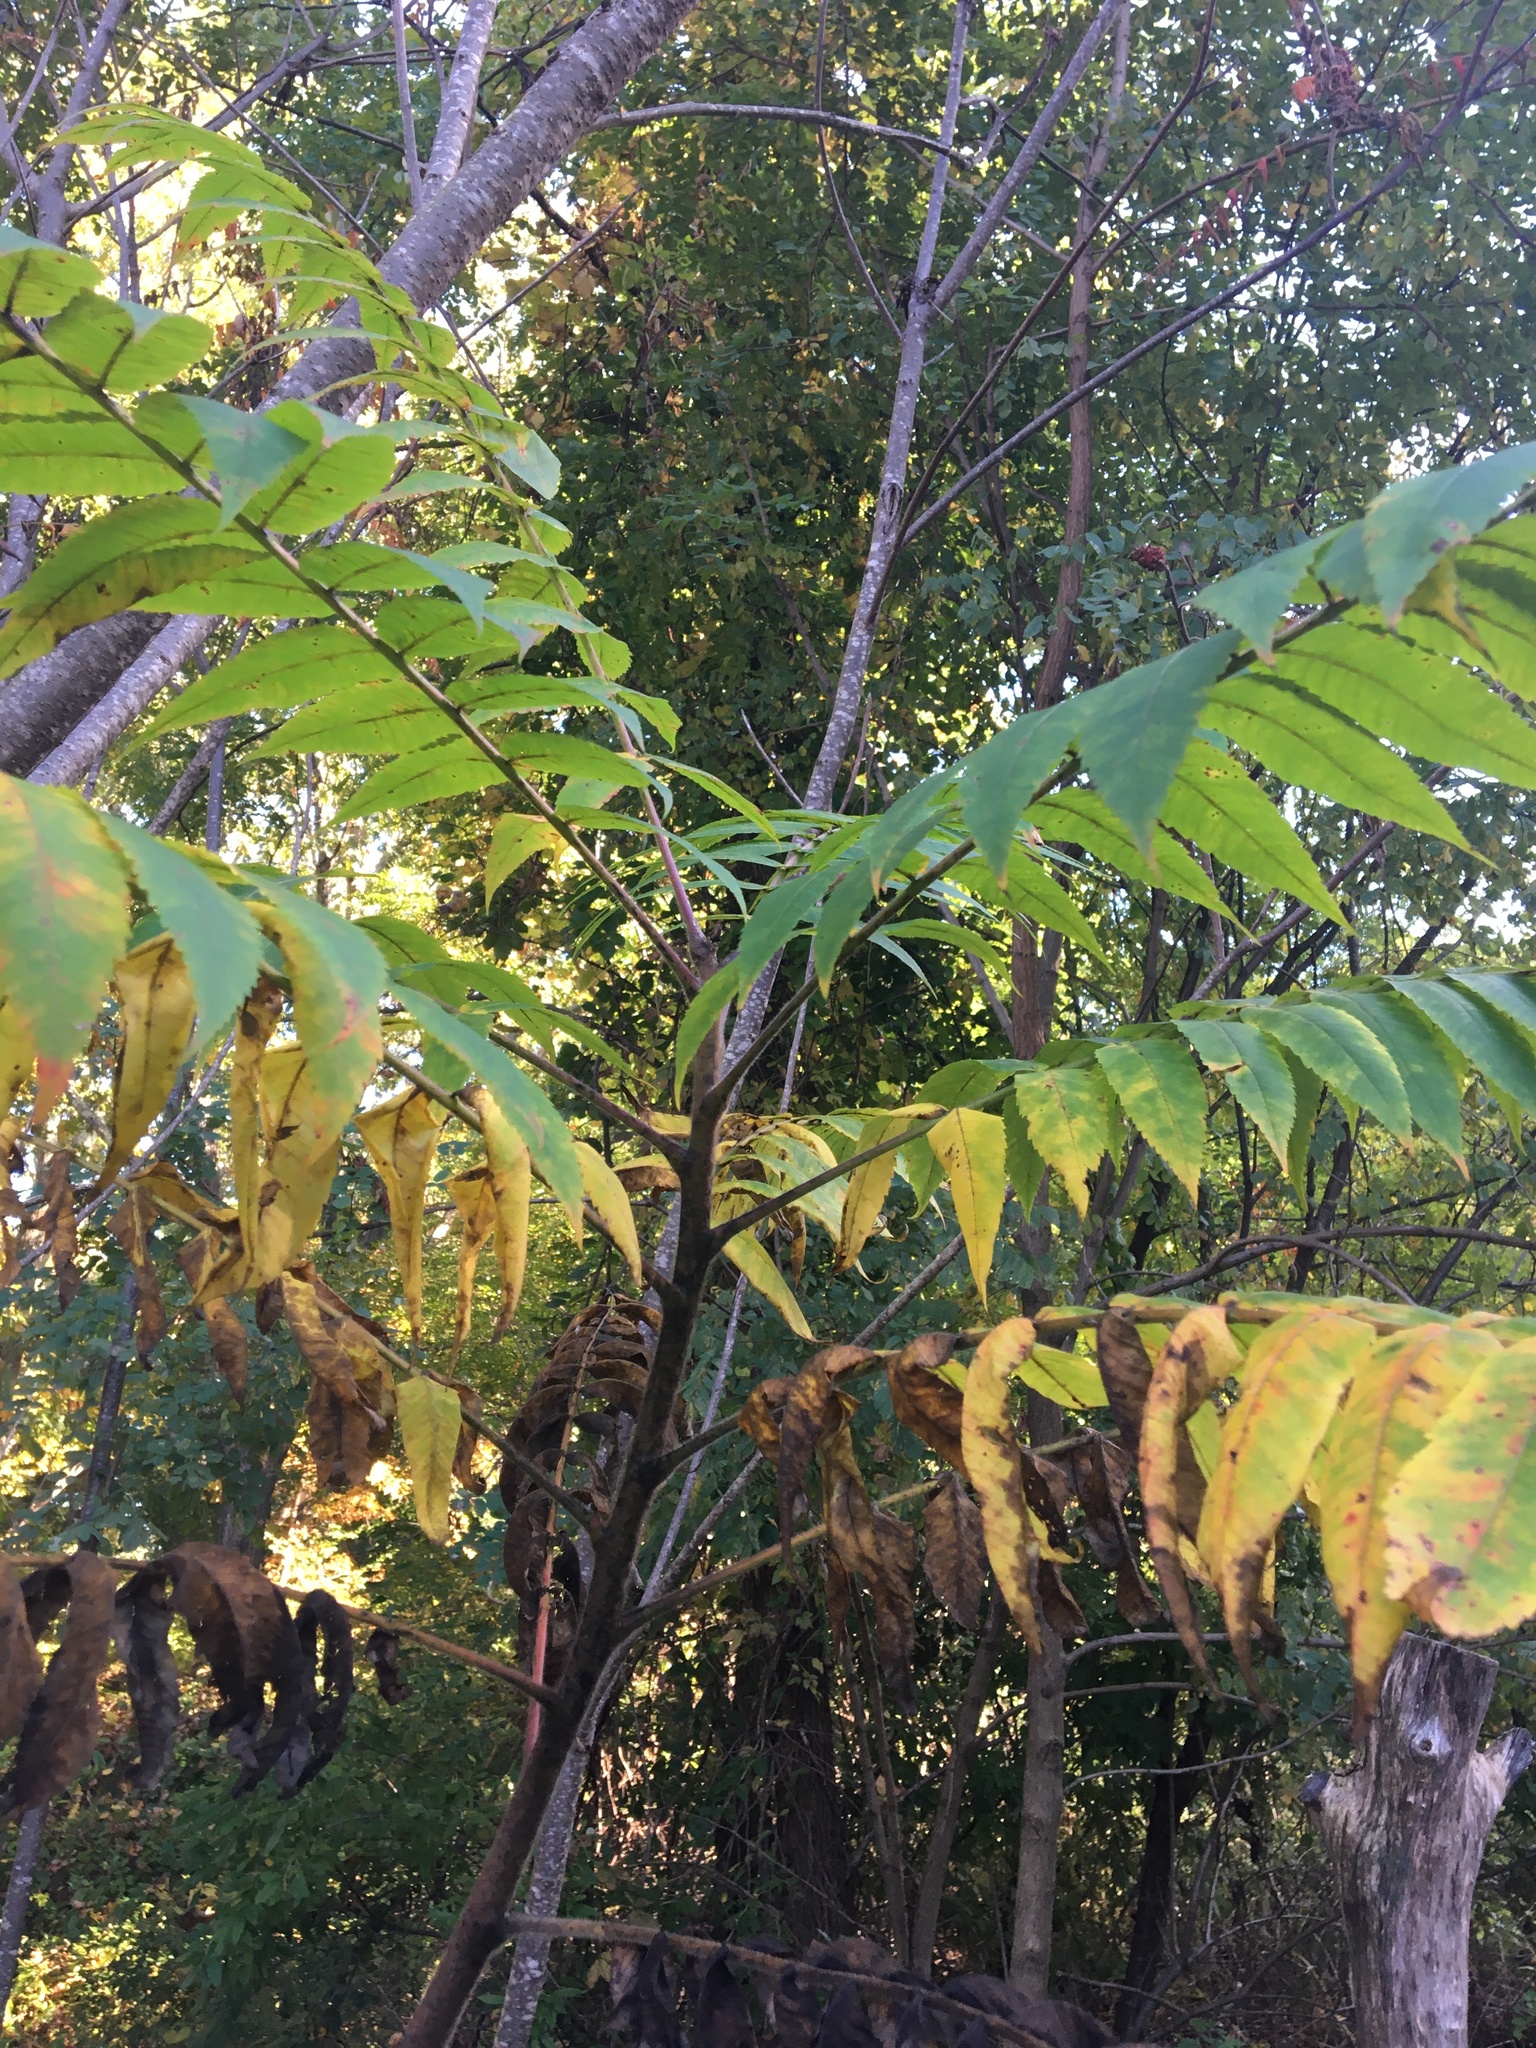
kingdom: Plantae
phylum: Tracheophyta
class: Magnoliopsida
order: Sapindales
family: Anacardiaceae
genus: Rhus
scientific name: Rhus typhina
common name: Staghorn sumac
